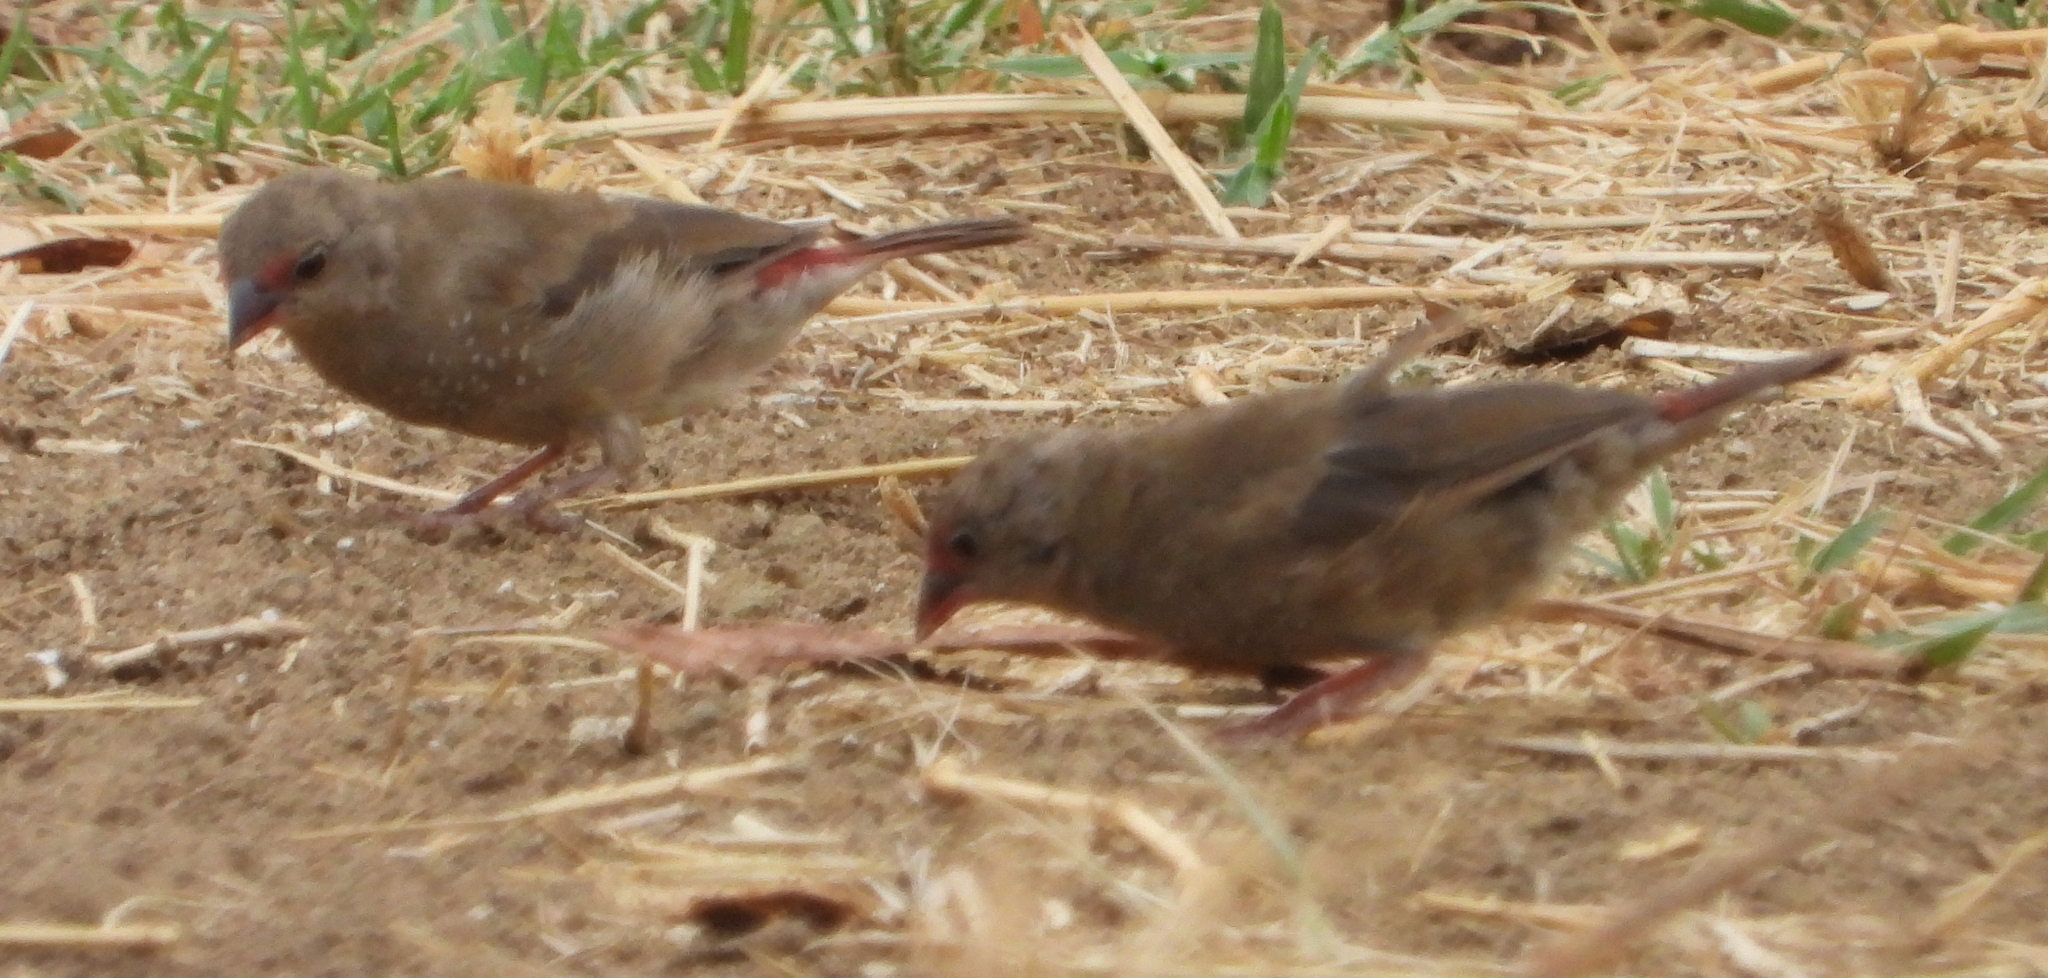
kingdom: Animalia
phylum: Chordata
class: Aves
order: Passeriformes
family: Estrildidae
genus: Lagonosticta
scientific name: Lagonosticta senegala
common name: Red-billed firefinch
